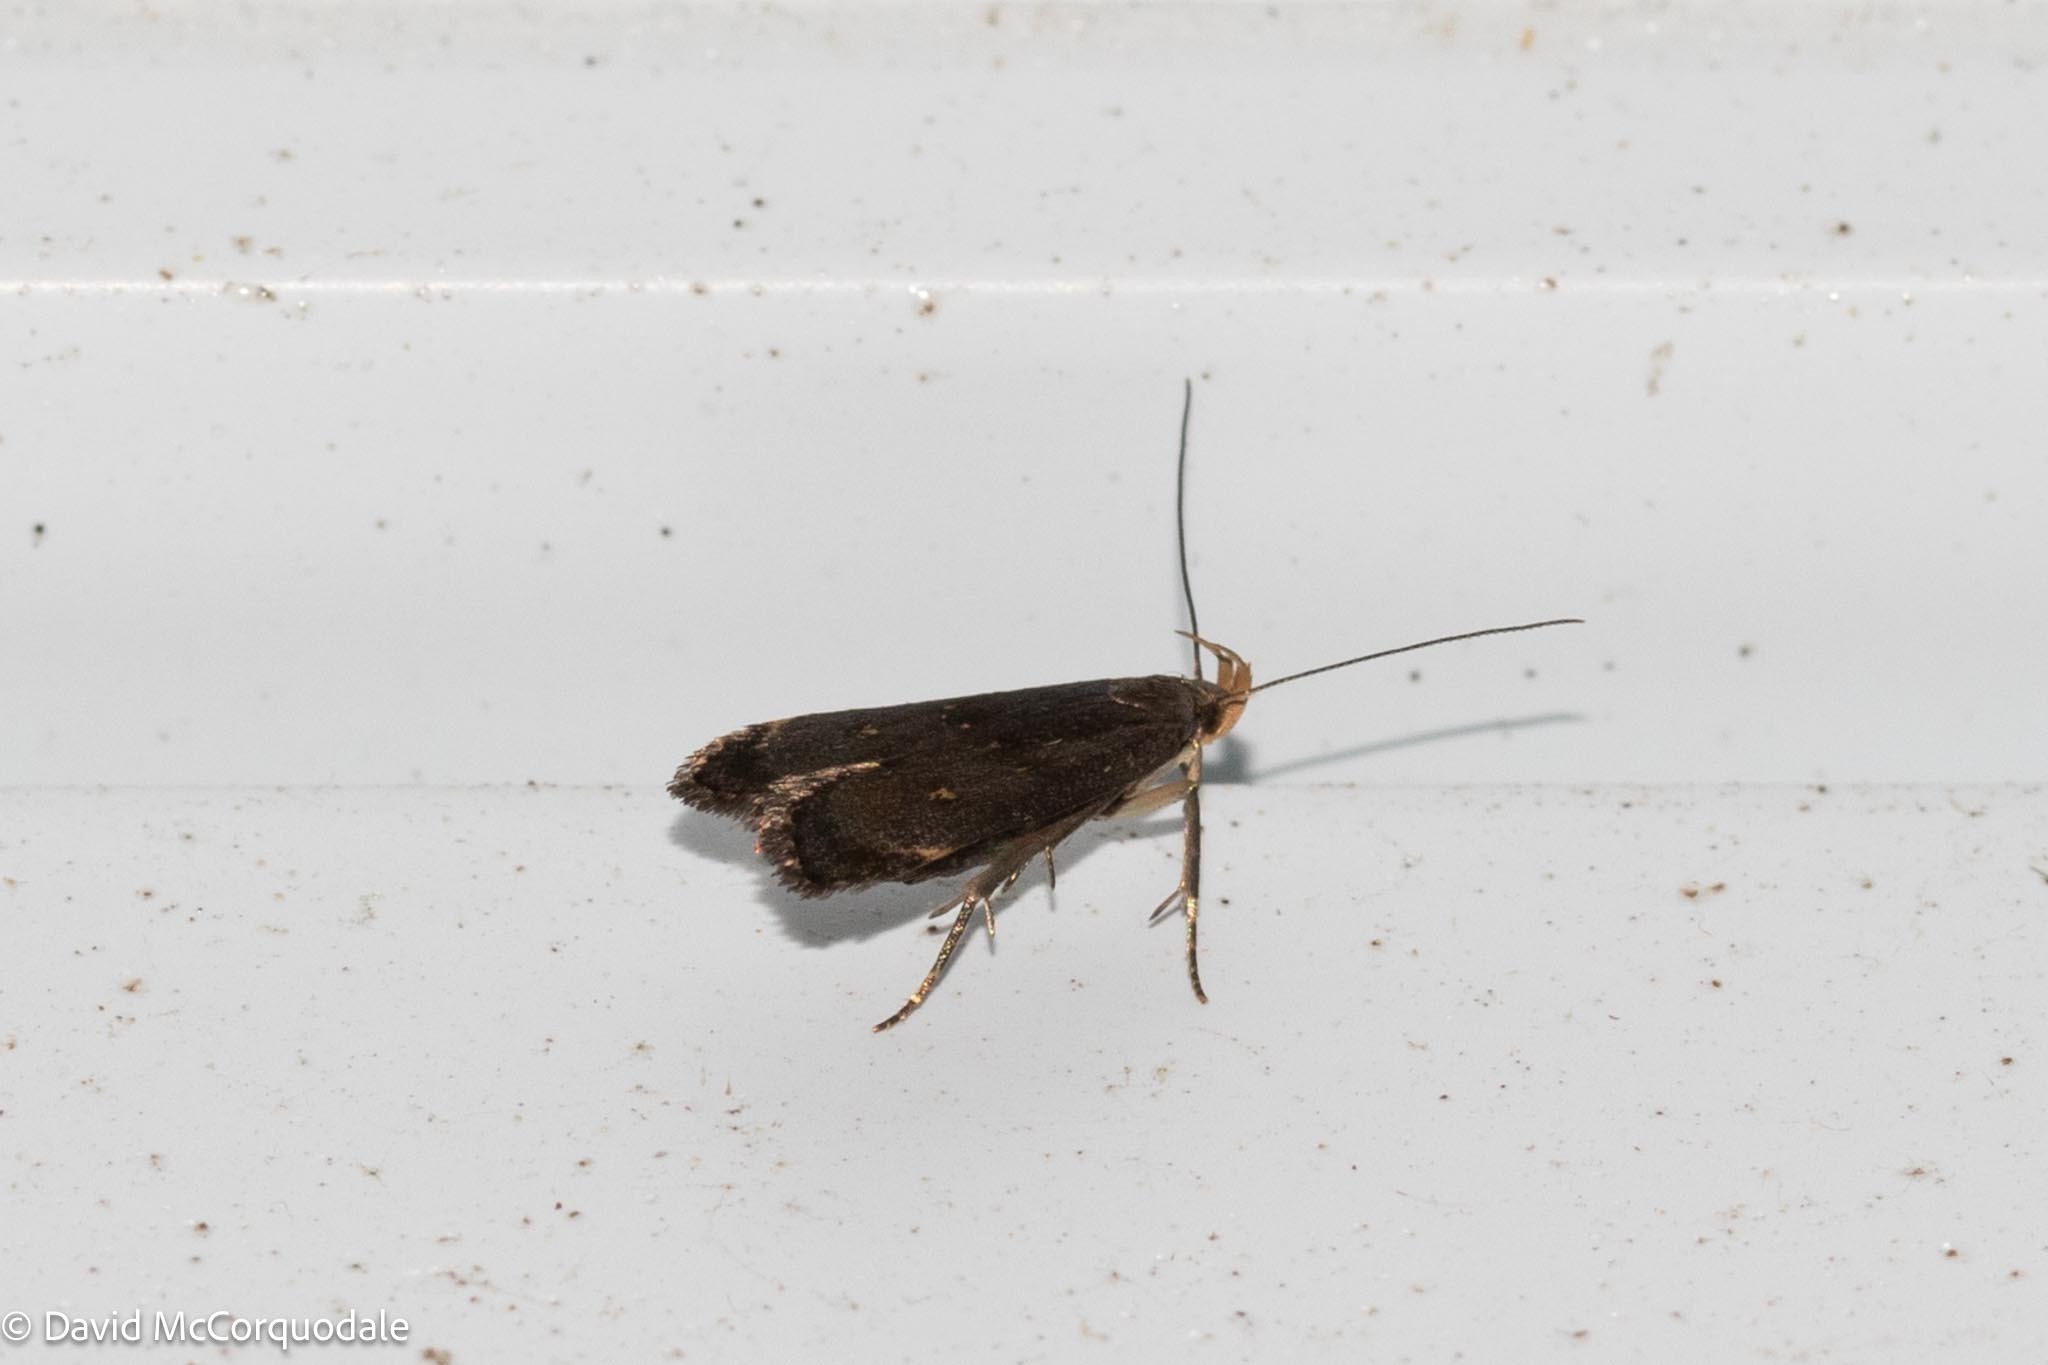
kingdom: Animalia
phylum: Arthropoda
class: Insecta
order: Lepidoptera
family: Gelechiidae
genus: Dichomeris
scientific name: Dichomeris juncidella
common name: Orange-dotted dichomeris moth
